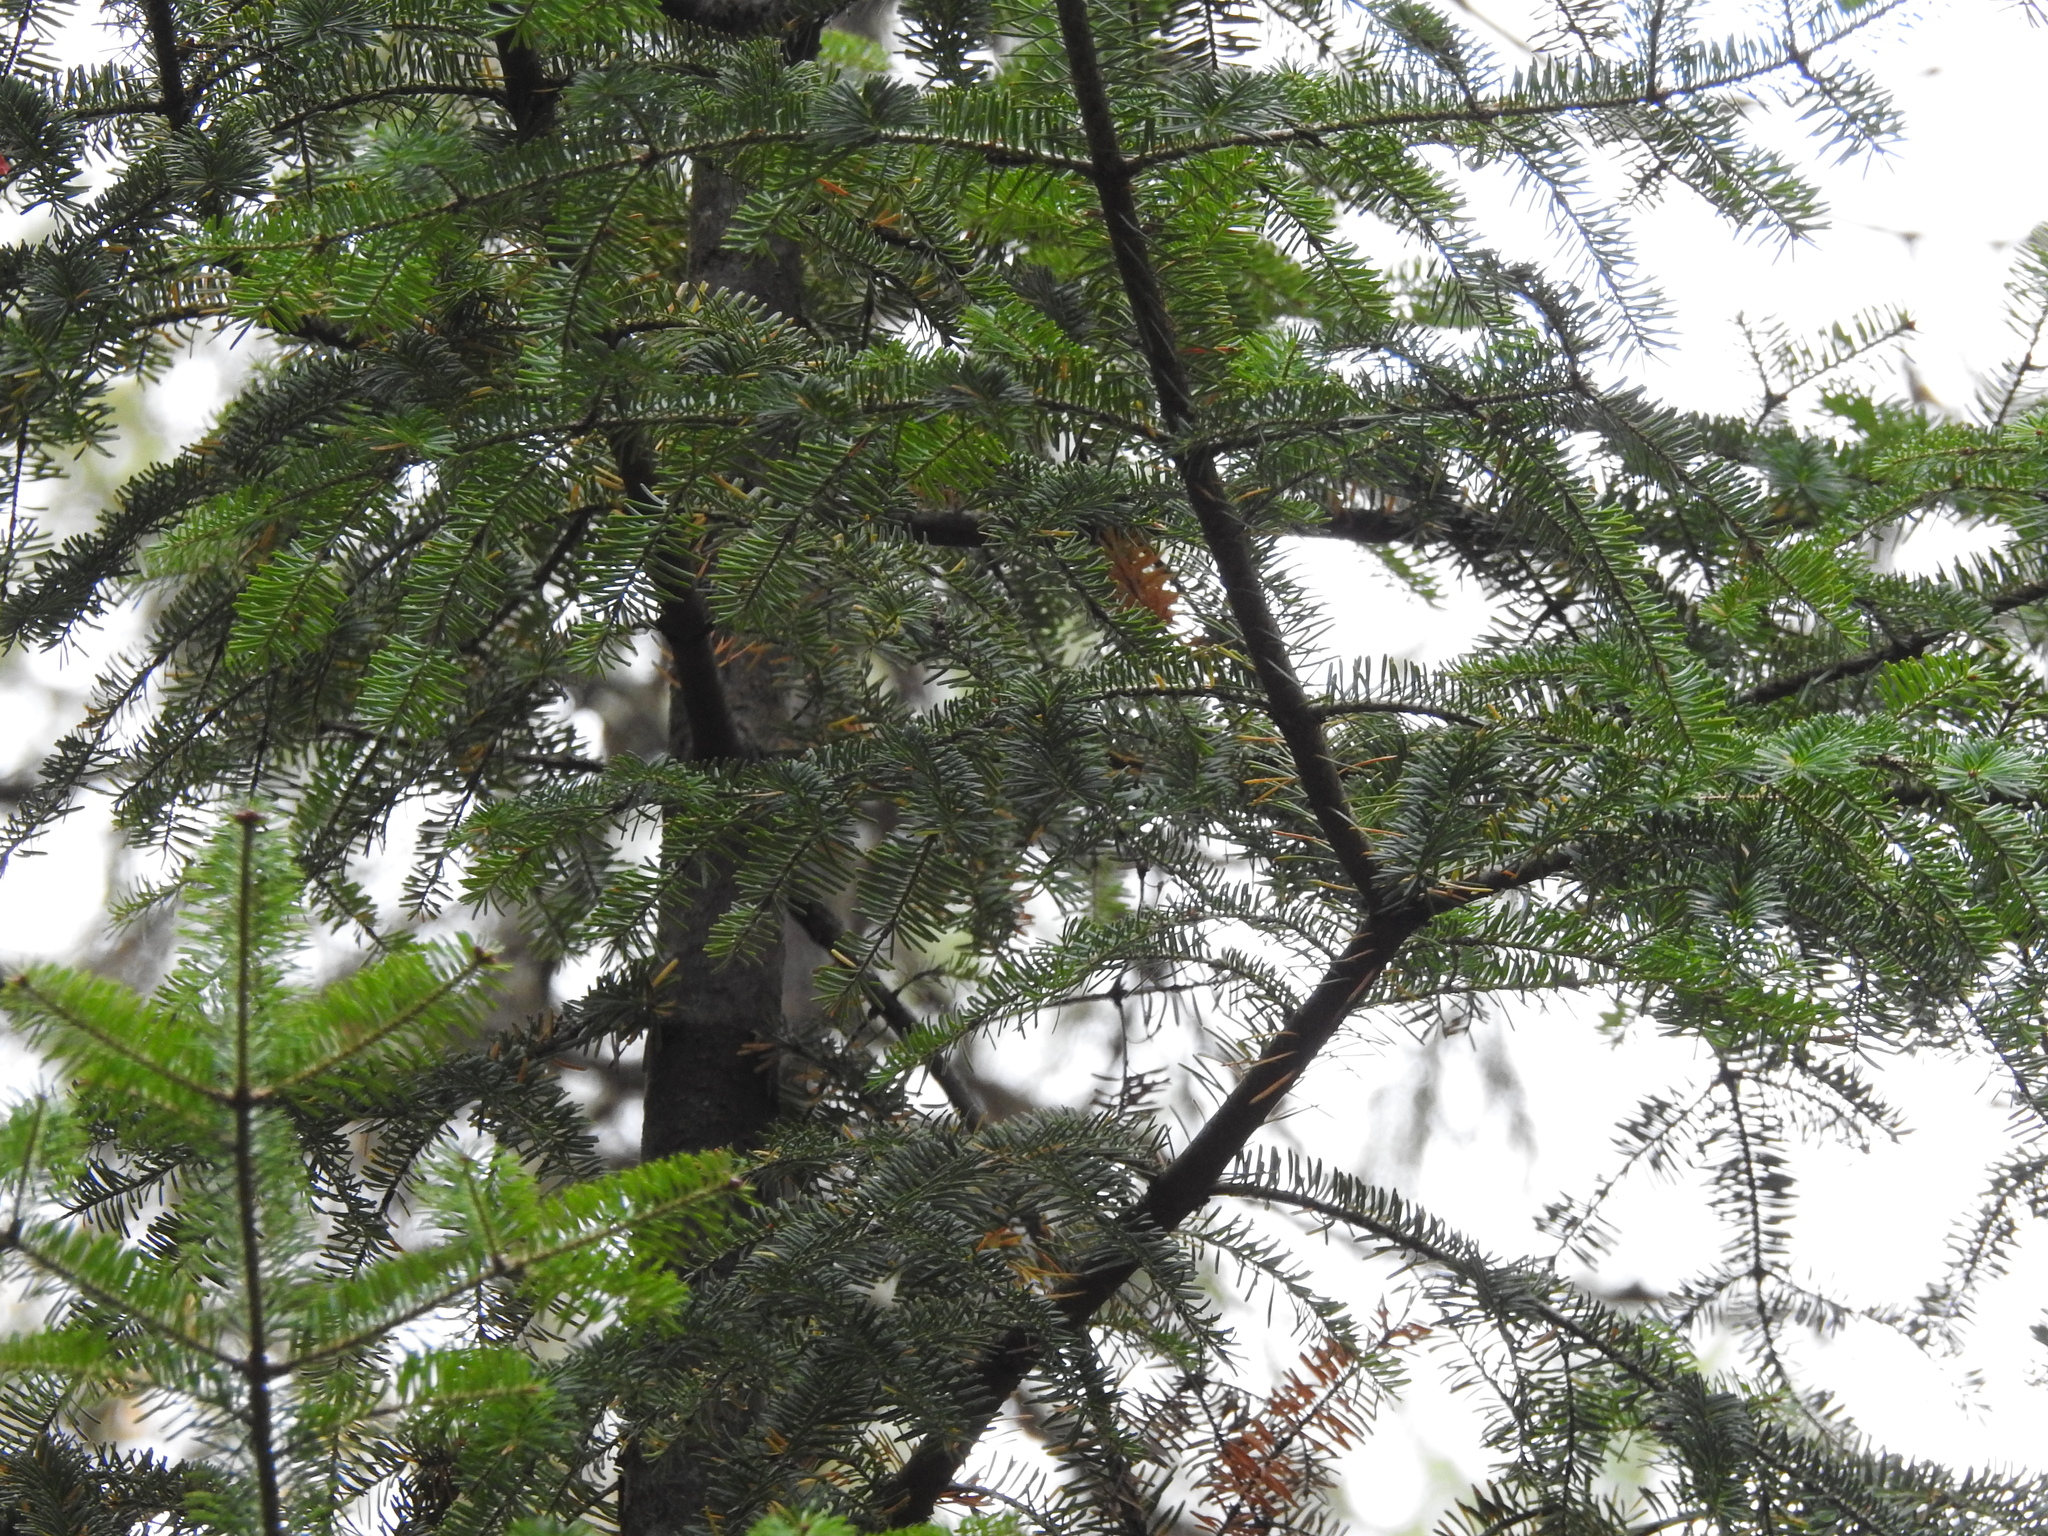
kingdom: Plantae
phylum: Tracheophyta
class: Pinopsida
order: Pinales
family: Pinaceae
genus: Abies
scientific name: Abies balsamea
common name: Balsam fir
